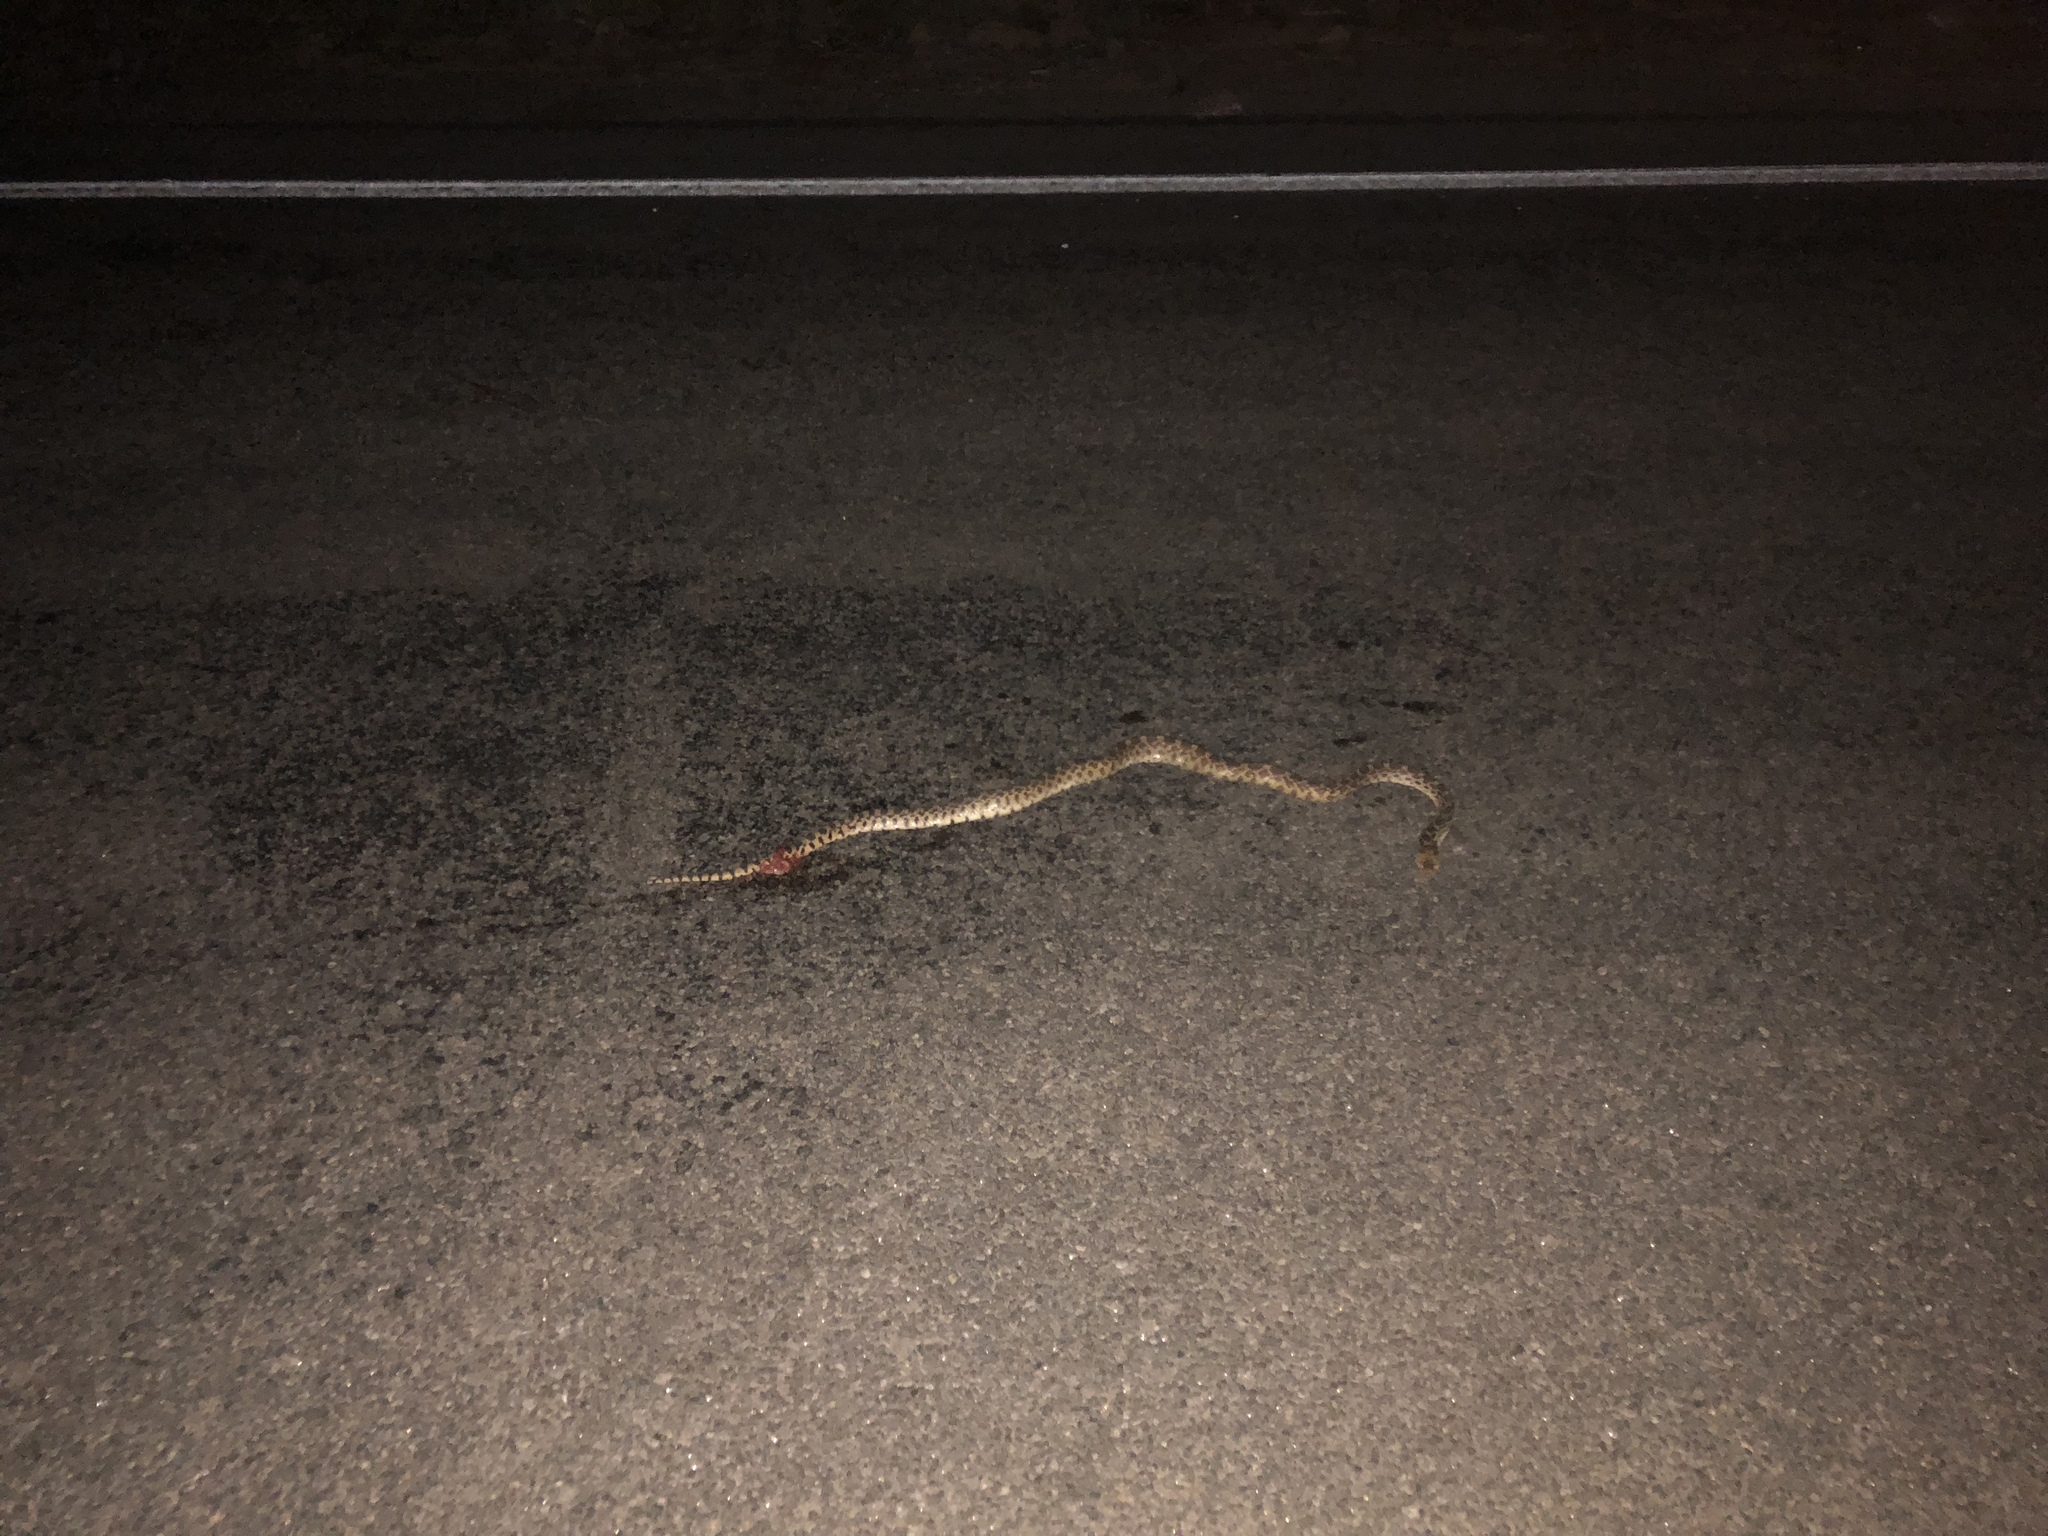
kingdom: Animalia
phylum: Chordata
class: Squamata
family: Colubridae
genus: Pituophis
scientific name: Pituophis catenifer
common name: Gopher snake
